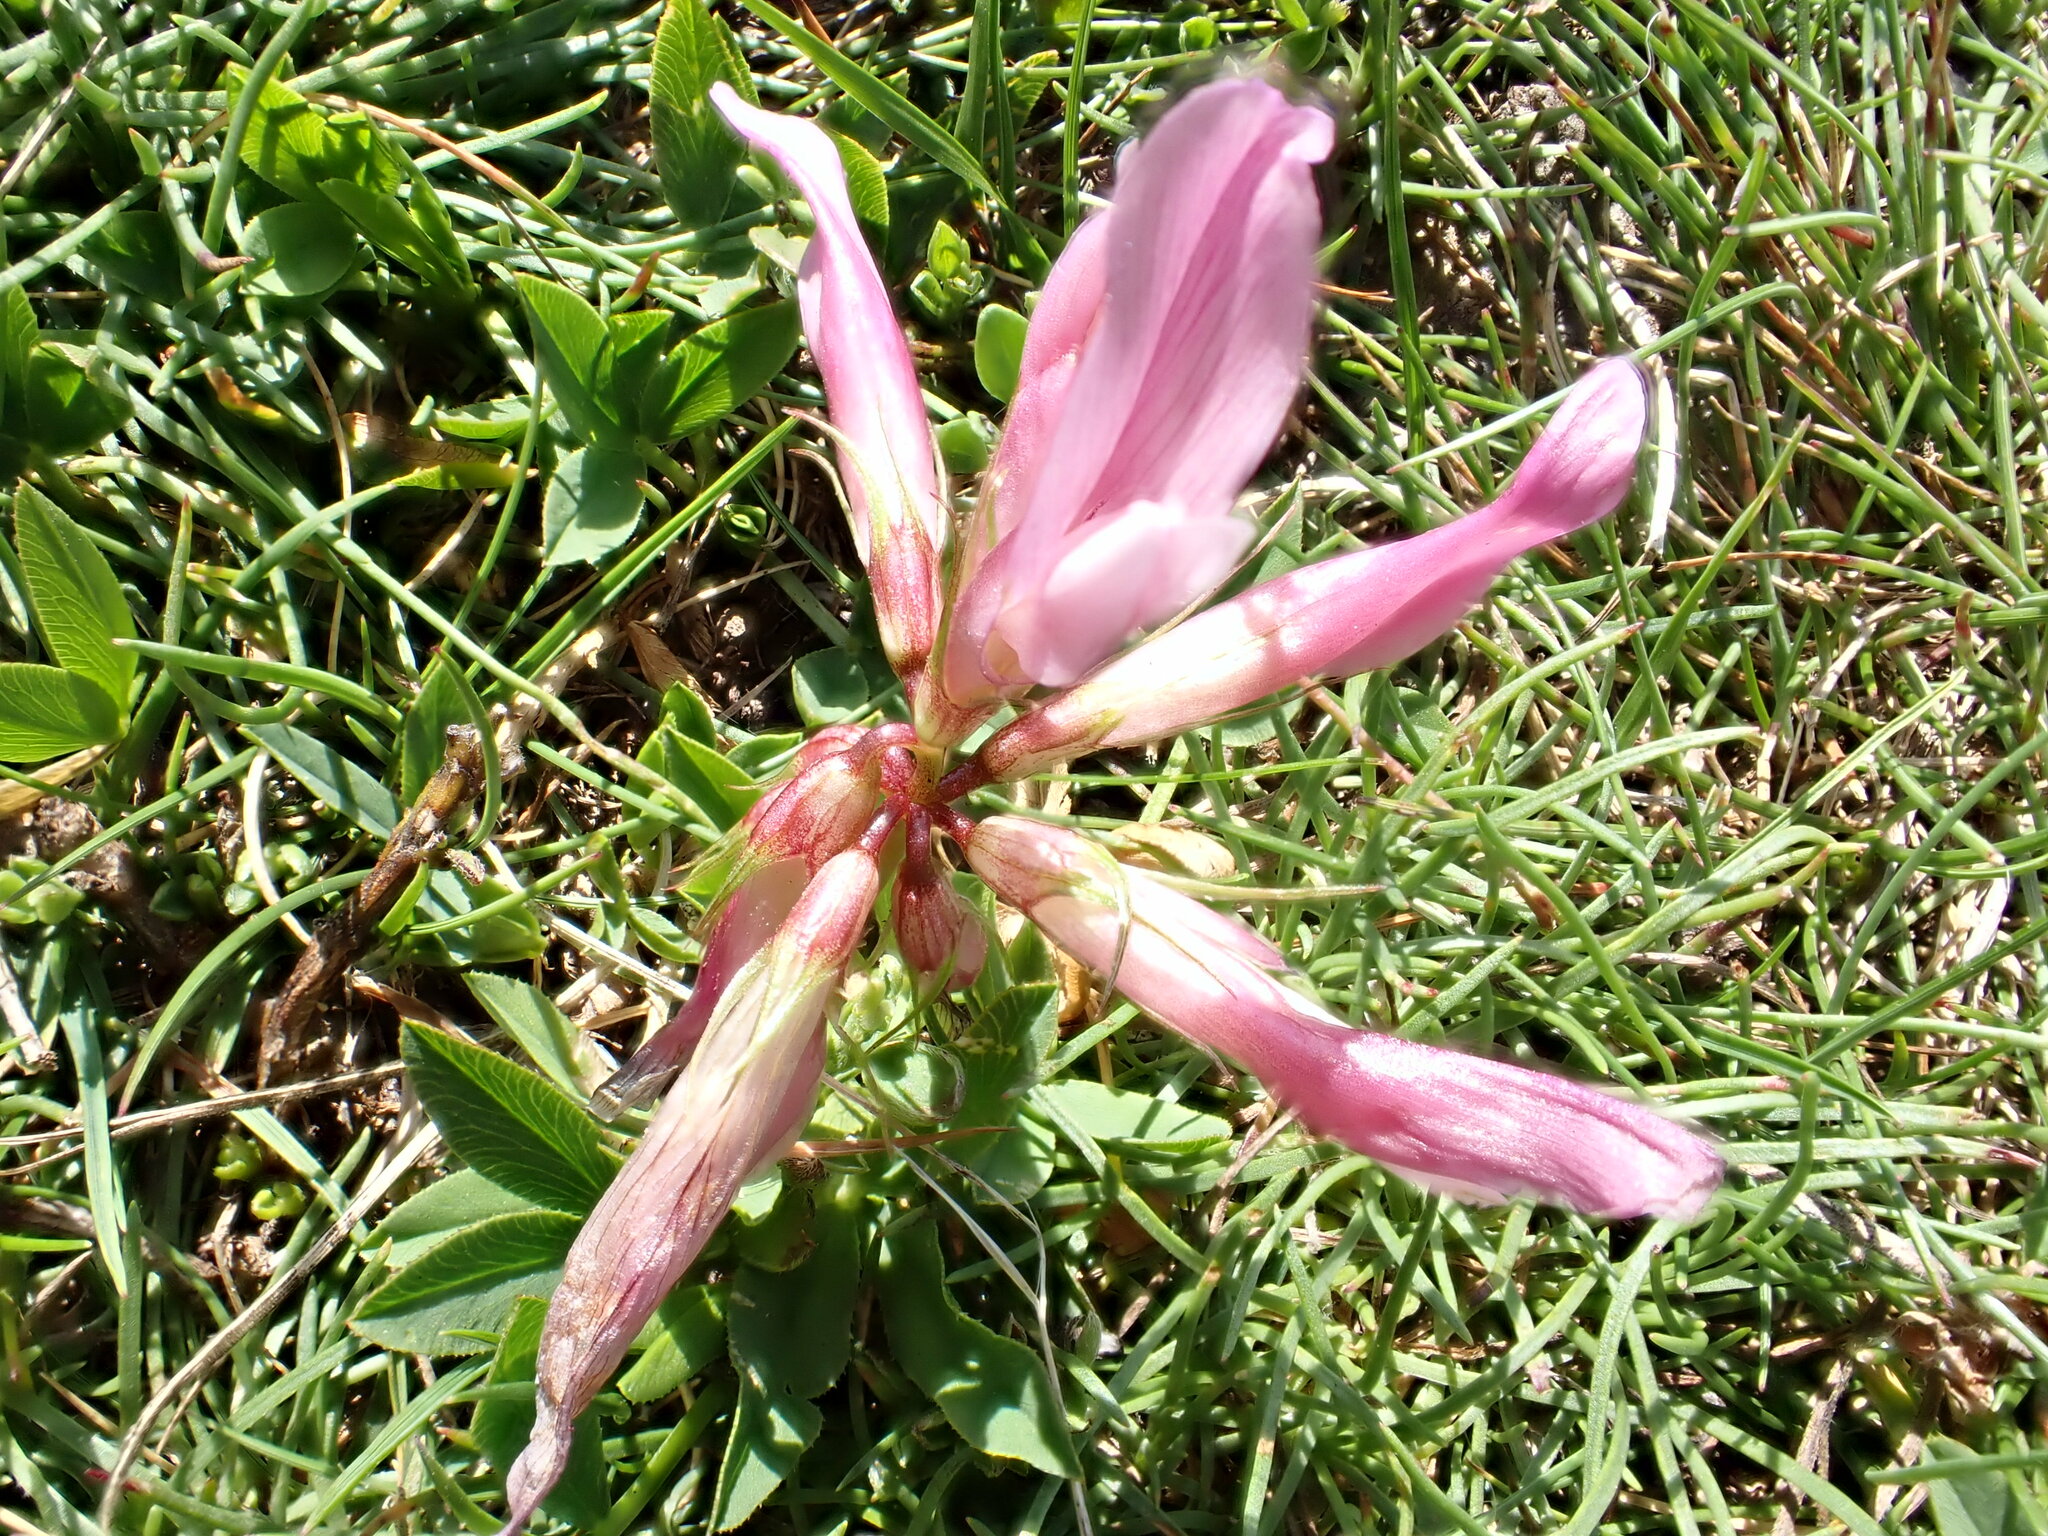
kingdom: Plantae
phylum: Tracheophyta
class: Magnoliopsida
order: Fabales
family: Fabaceae
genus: Trifolium
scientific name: Trifolium alpinum
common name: Alpine clover
